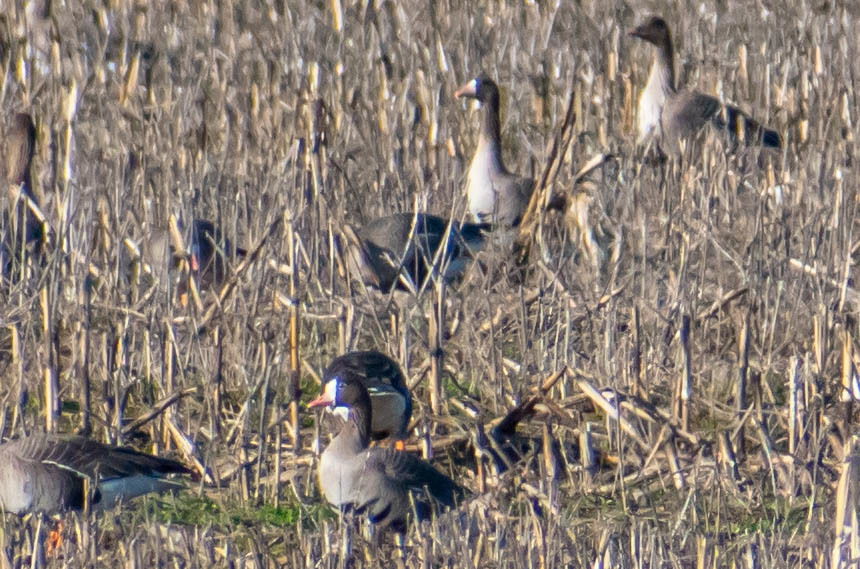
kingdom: Animalia
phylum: Chordata
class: Aves
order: Anseriformes
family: Anatidae
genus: Anser
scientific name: Anser erythropus
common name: Lesser white-fronted goose
